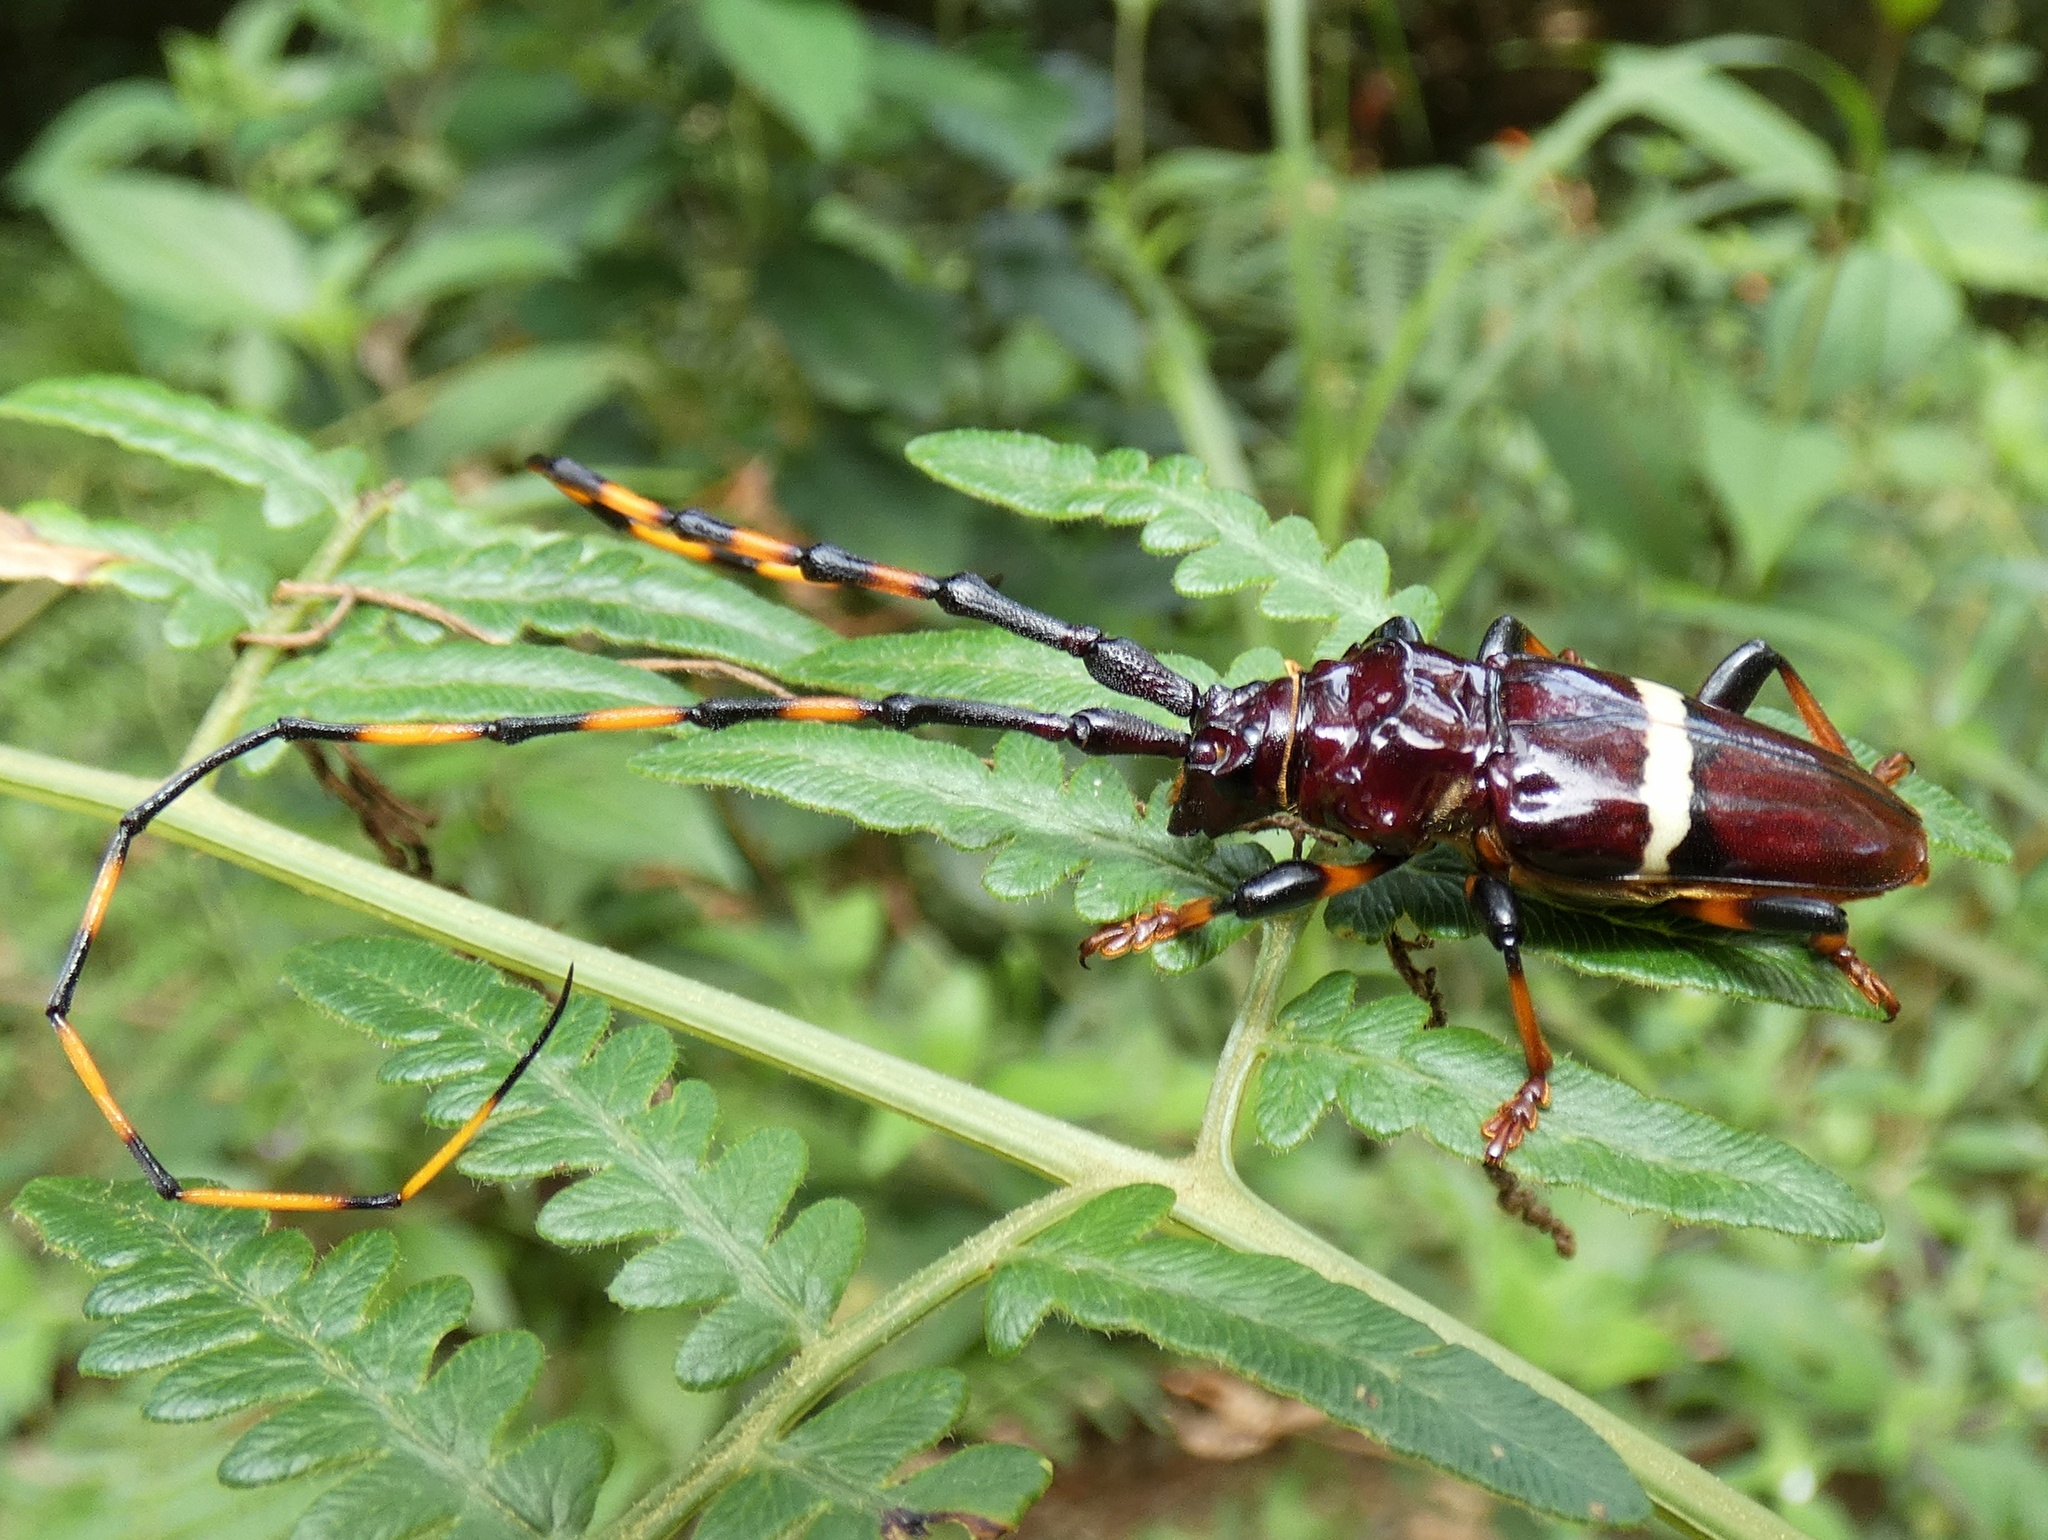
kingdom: Animalia
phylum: Arthropoda
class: Insecta
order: Coleoptera
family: Cerambycidae
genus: Trachyderes
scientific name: Trachyderes succinctus
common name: Mango longhorn
